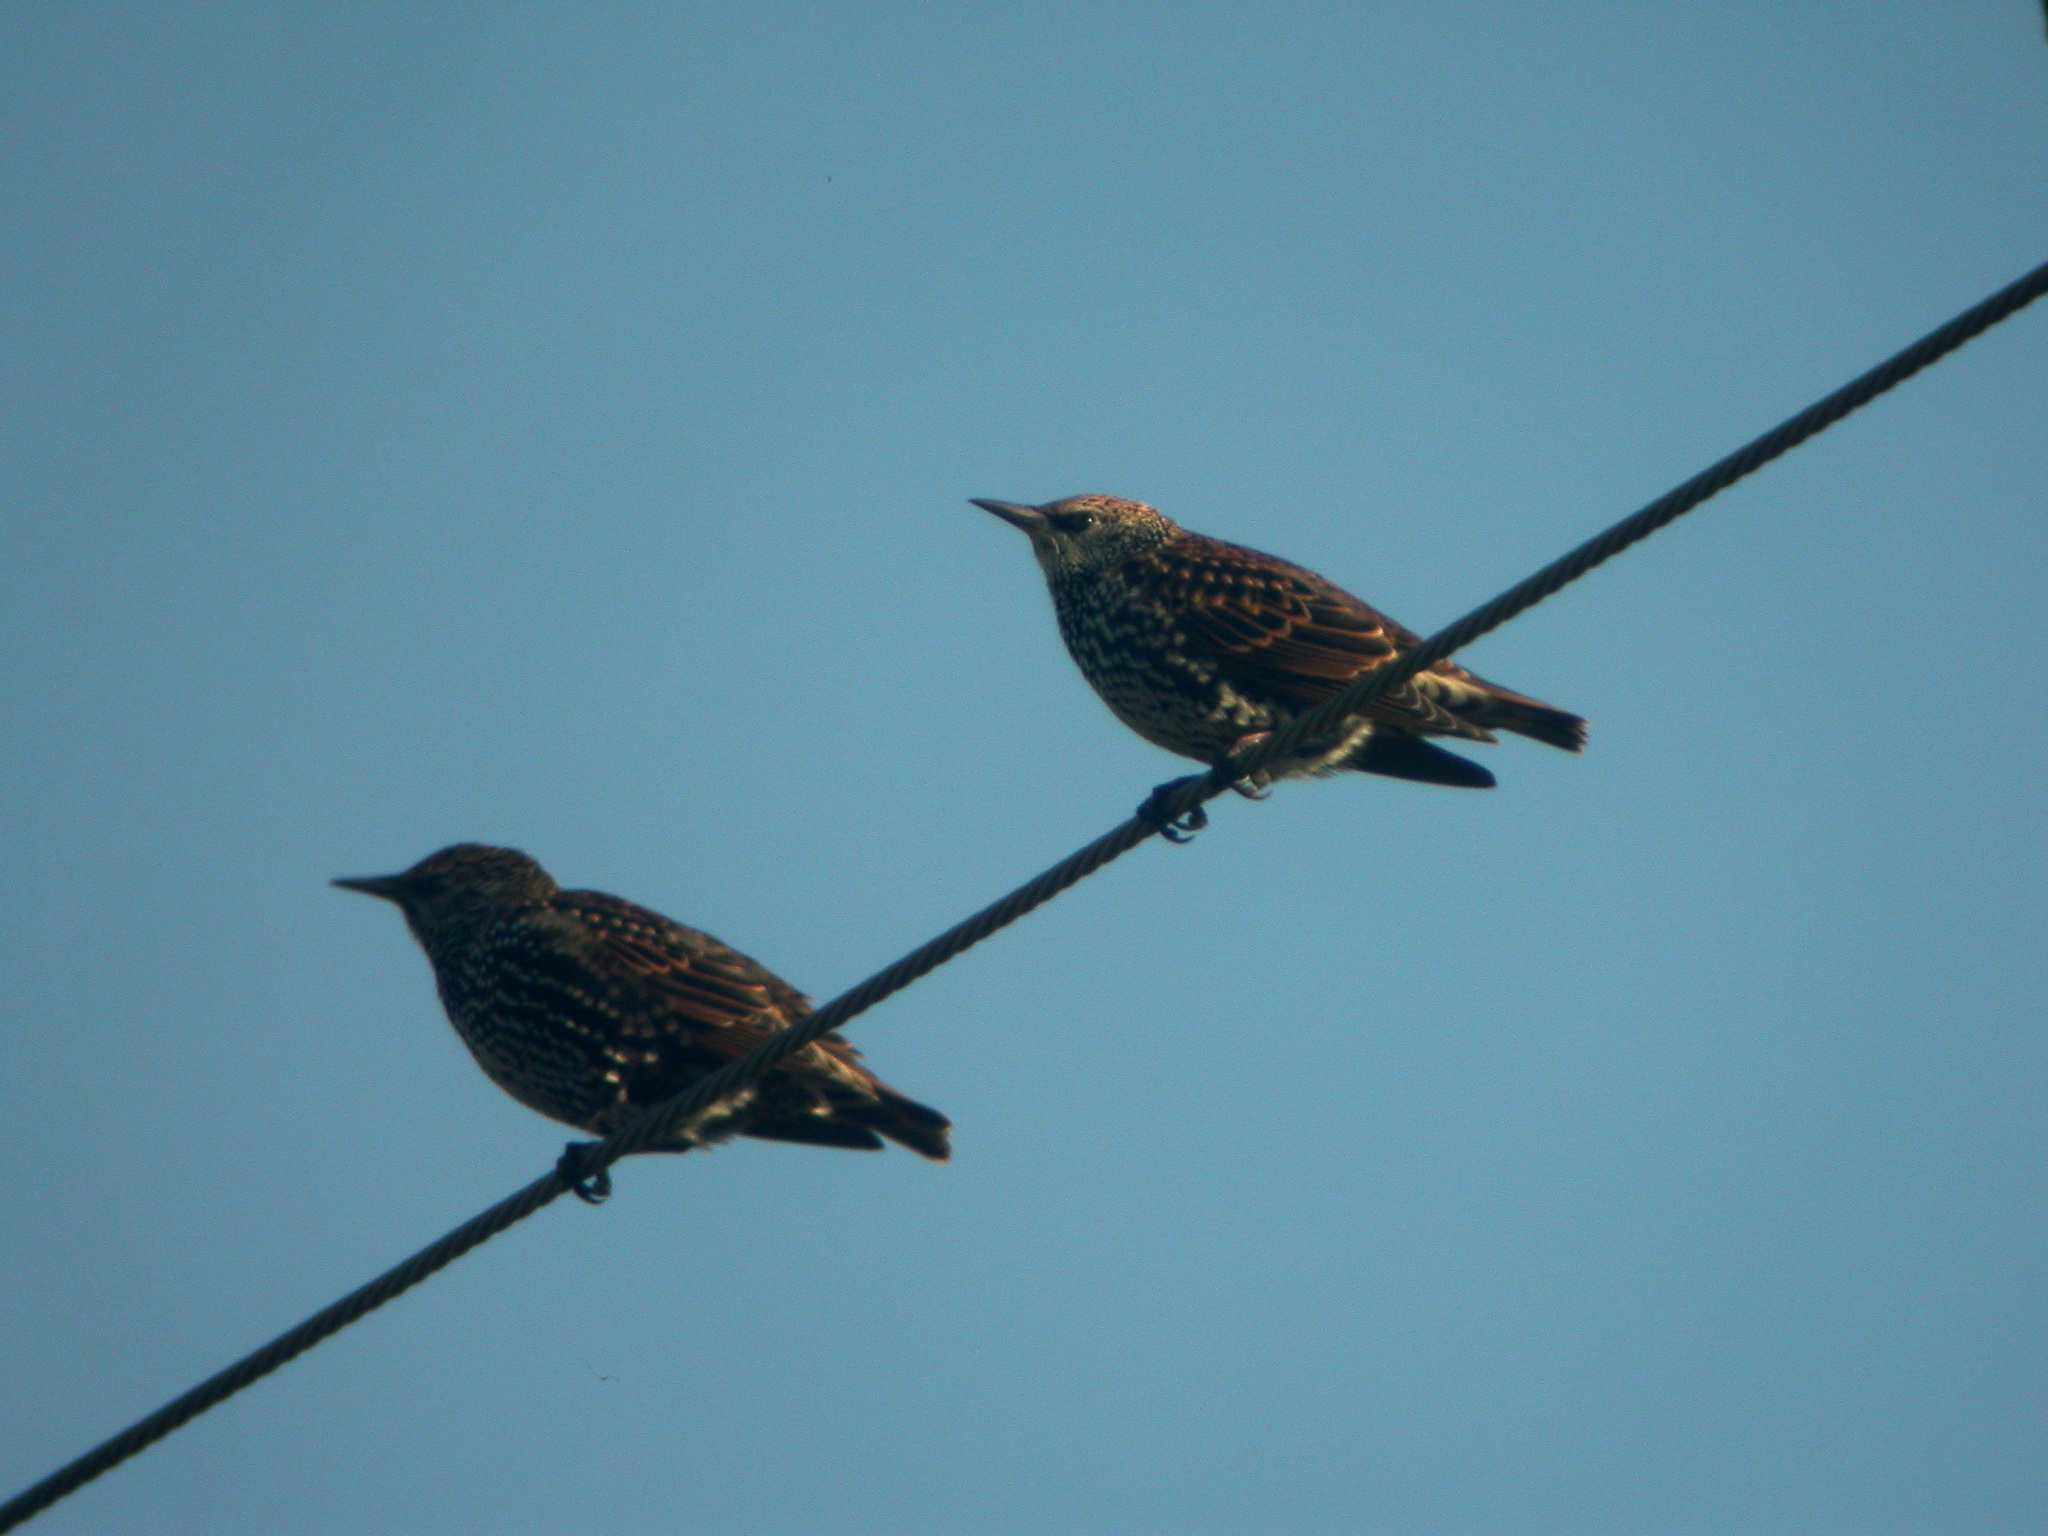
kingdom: Animalia
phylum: Chordata
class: Aves
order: Passeriformes
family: Sturnidae
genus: Sturnus
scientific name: Sturnus vulgaris
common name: Common starling
